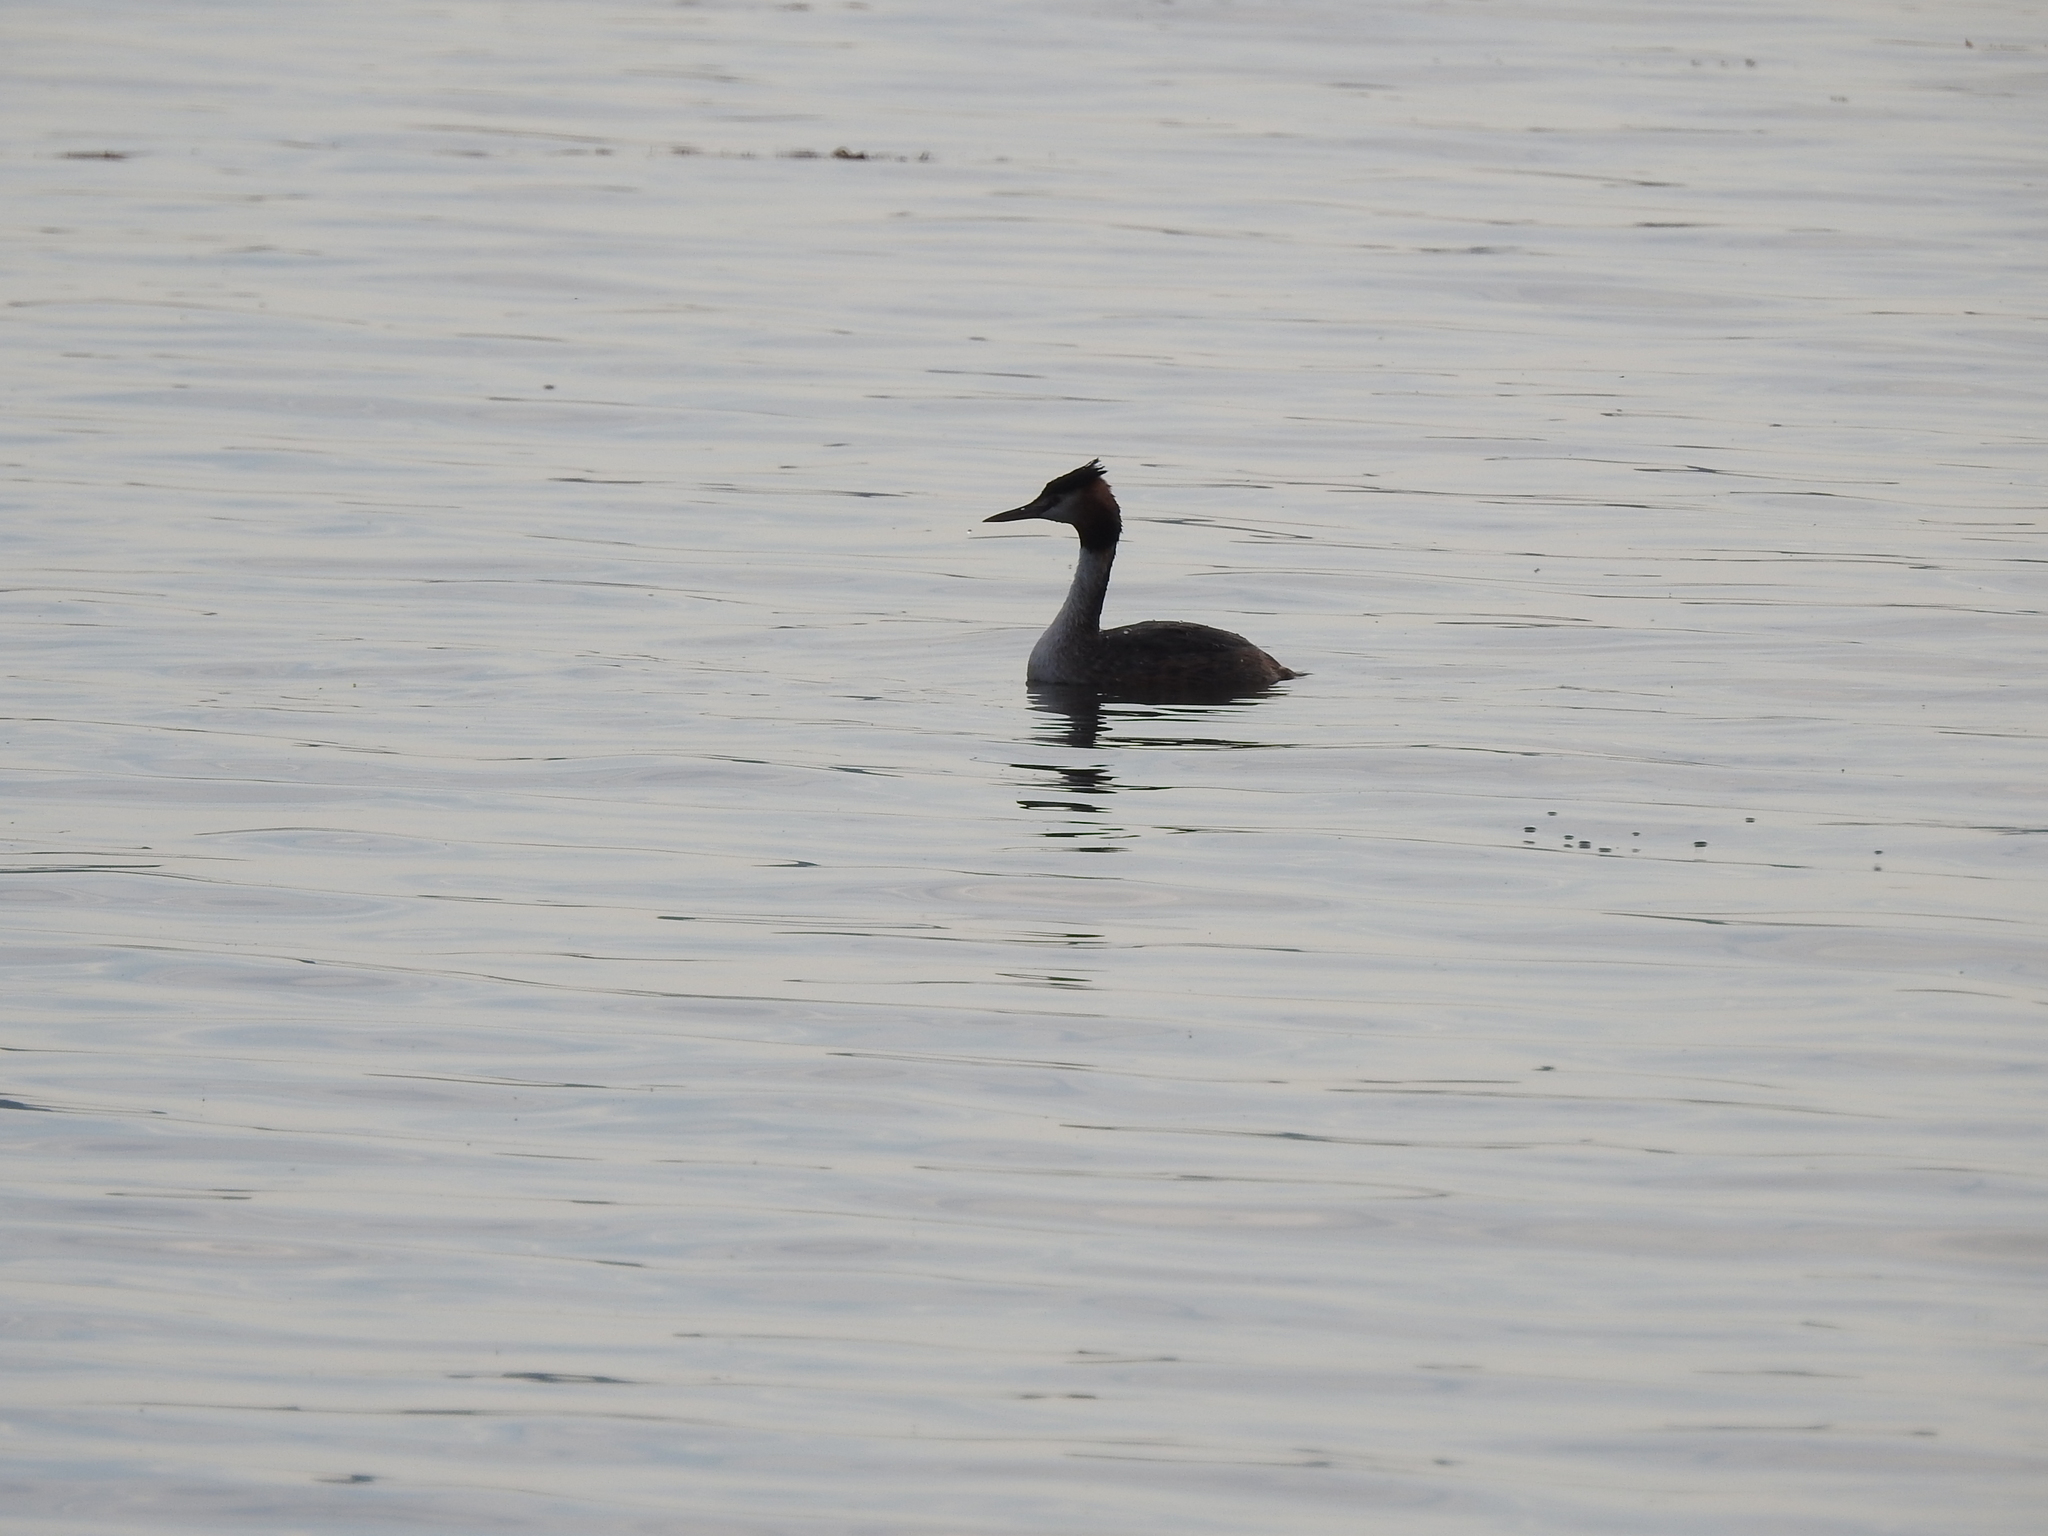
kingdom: Animalia
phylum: Chordata
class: Aves
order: Podicipediformes
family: Podicipedidae
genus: Podiceps
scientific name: Podiceps cristatus
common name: Great crested grebe
